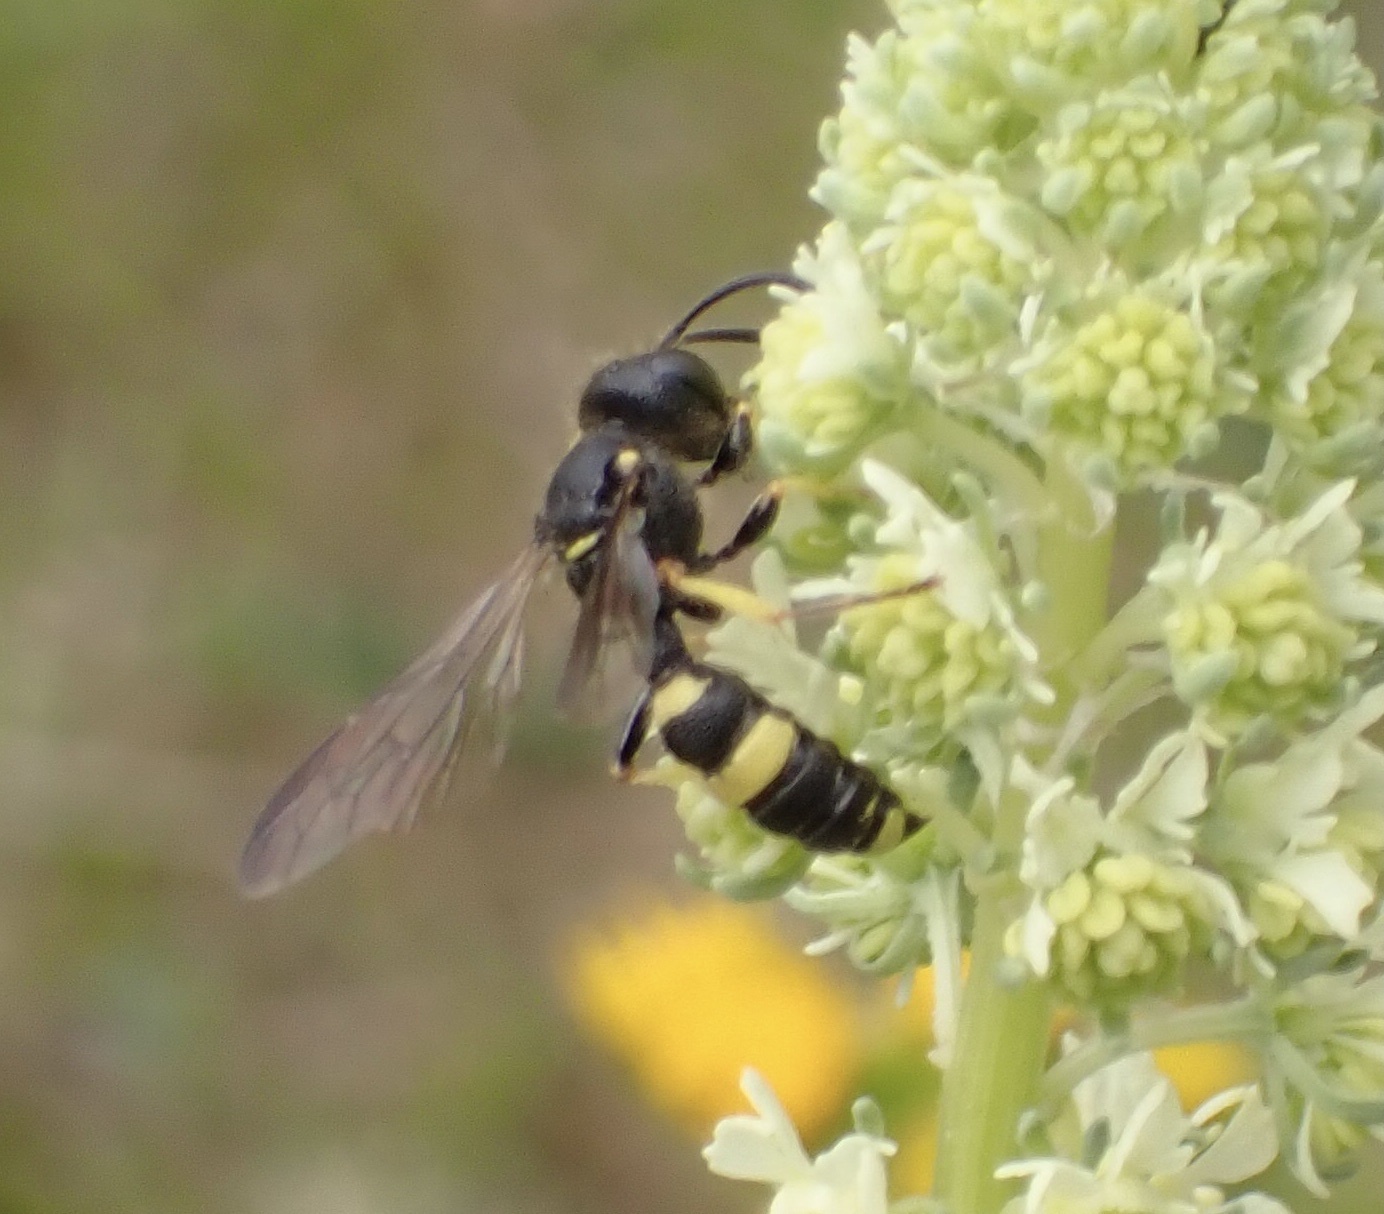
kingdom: Animalia
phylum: Arthropoda
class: Insecta
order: Hymenoptera
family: Crabronidae
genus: Cerceris
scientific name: Cerceris rybyensis
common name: Ornate tailed digger wasp
